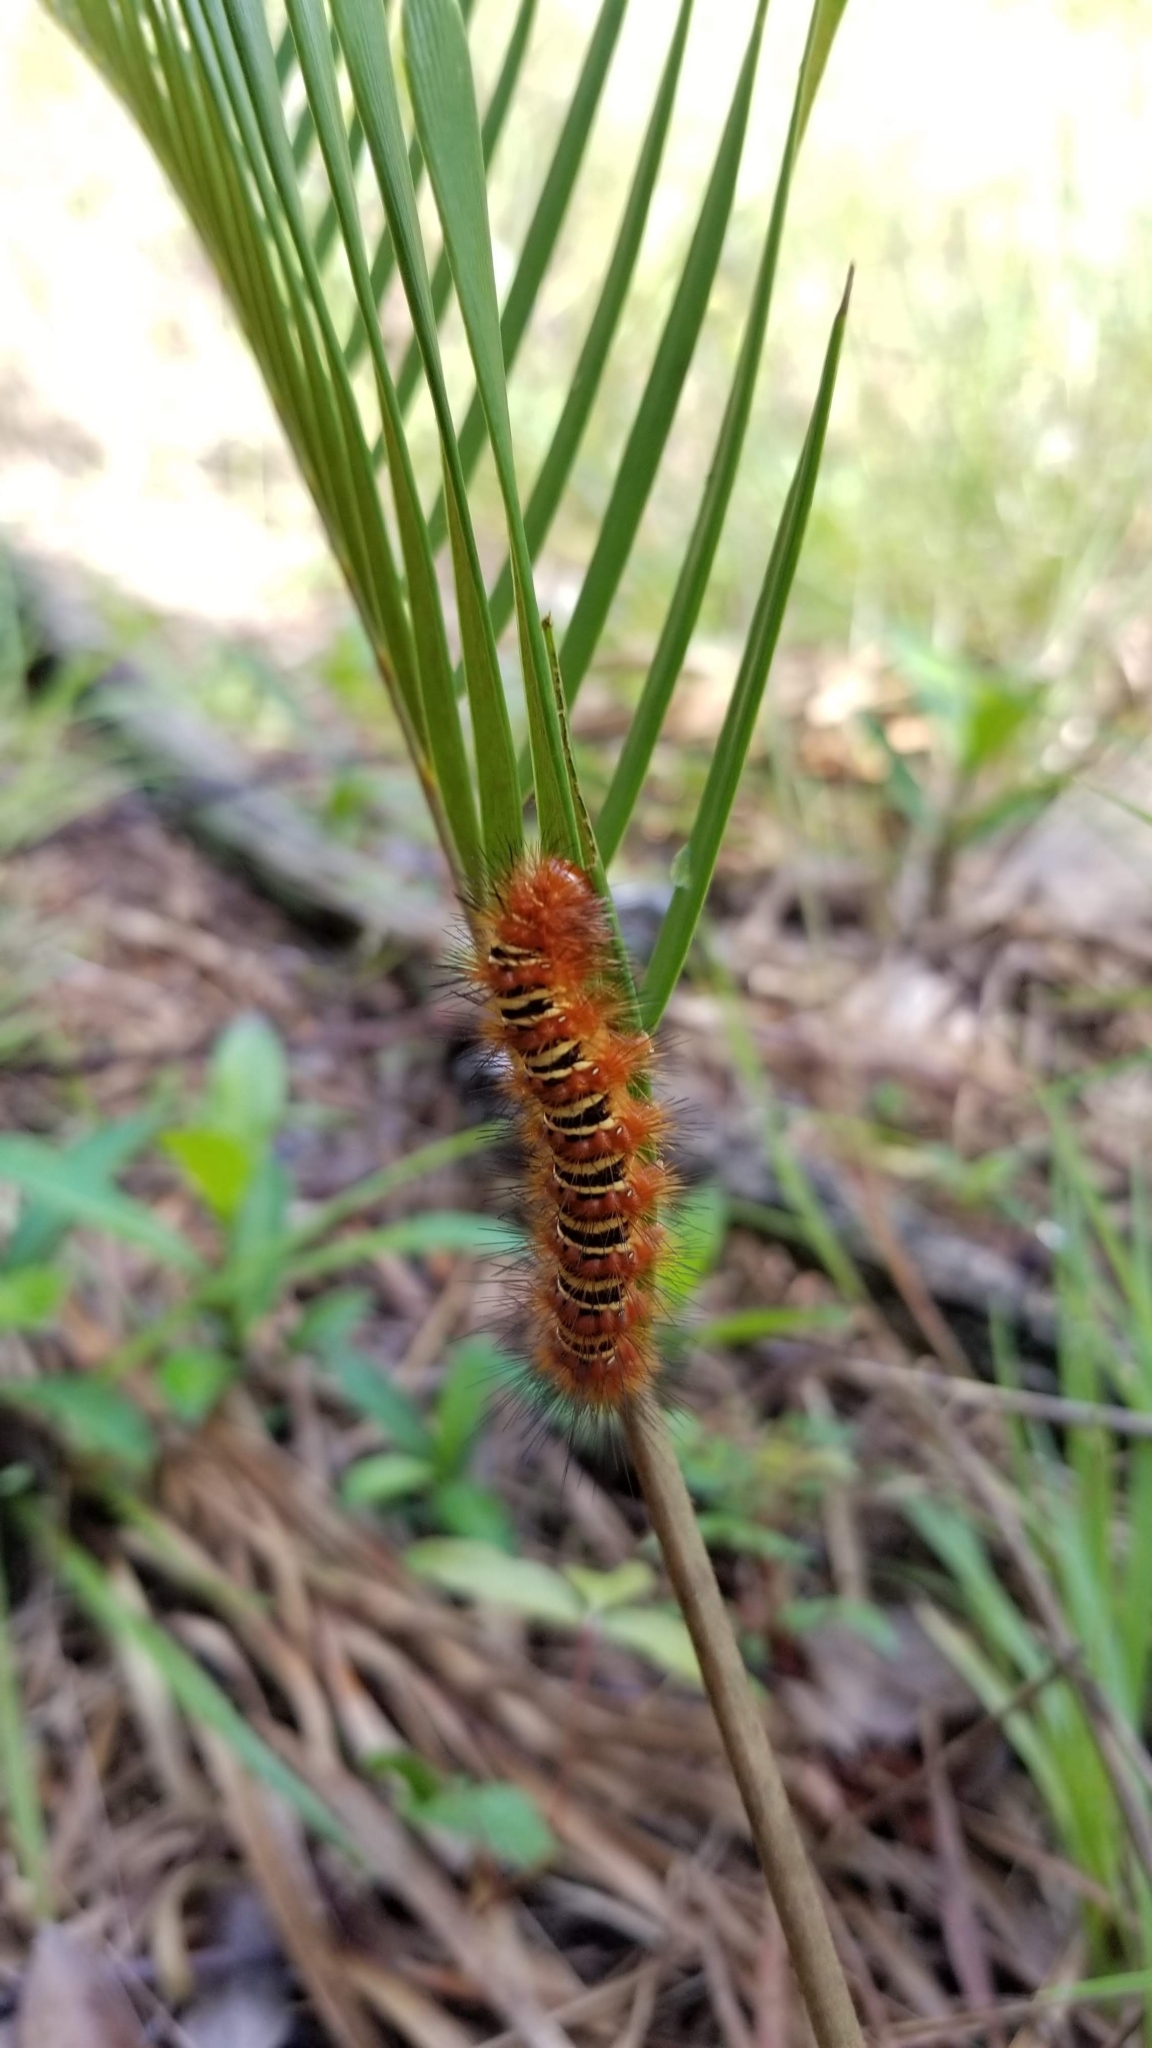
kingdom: Animalia
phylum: Arthropoda
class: Insecta
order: Lepidoptera
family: Erebidae
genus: Seirarctia
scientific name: Seirarctia echo
